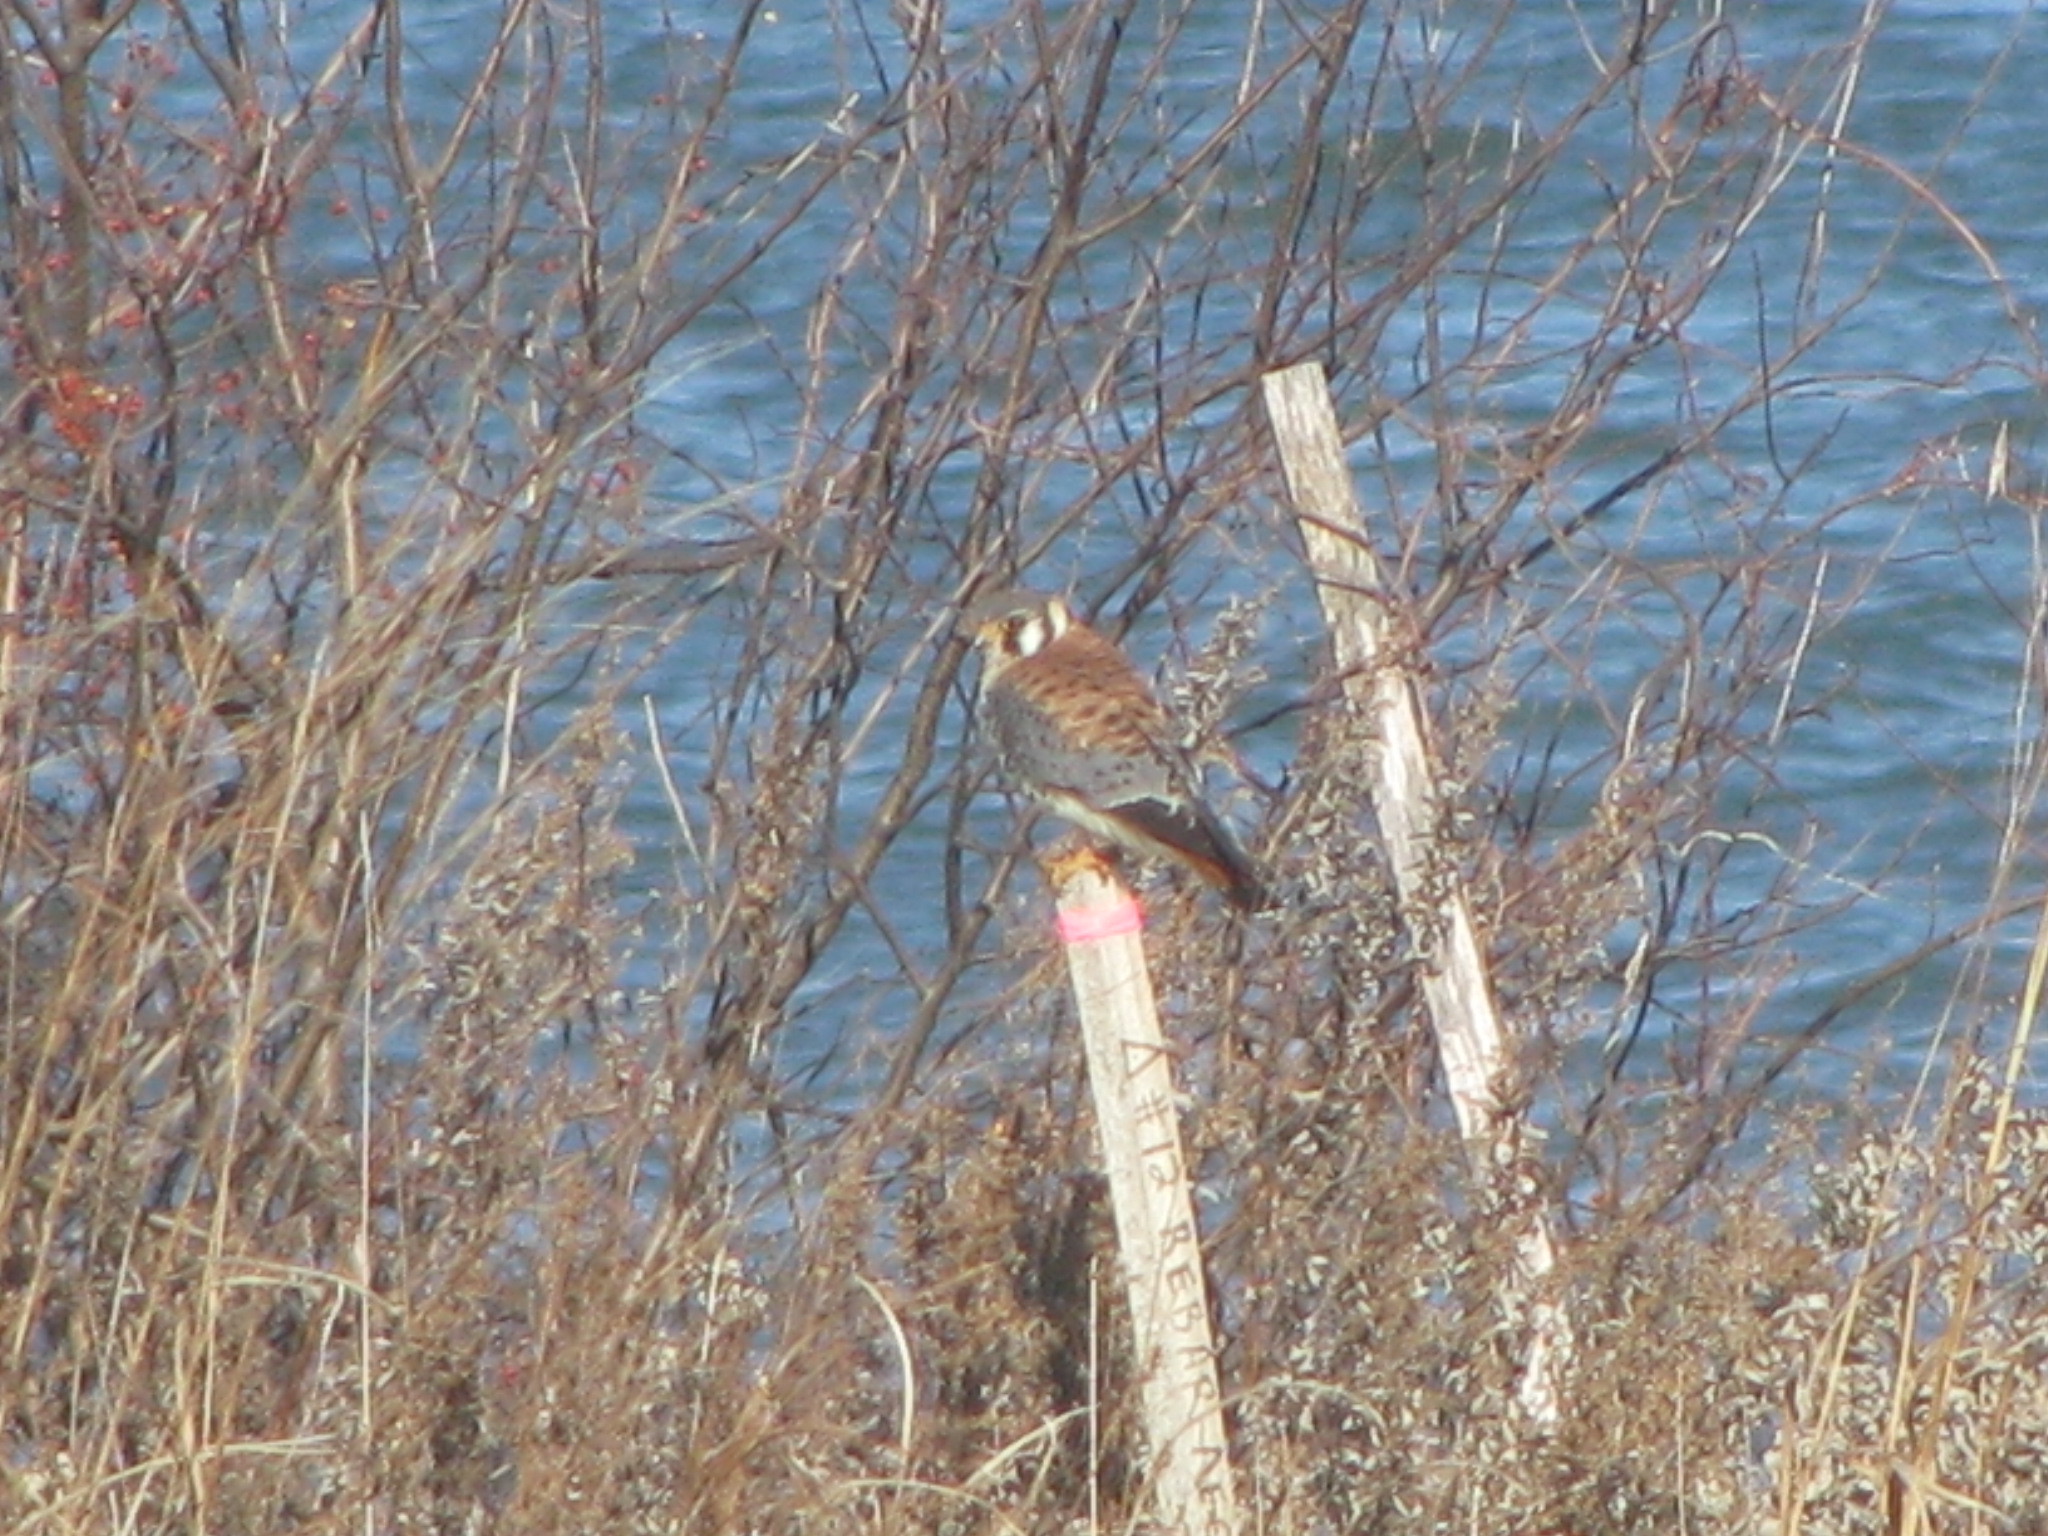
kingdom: Animalia
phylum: Chordata
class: Aves
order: Falconiformes
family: Falconidae
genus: Falco
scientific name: Falco sparverius
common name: American kestrel
